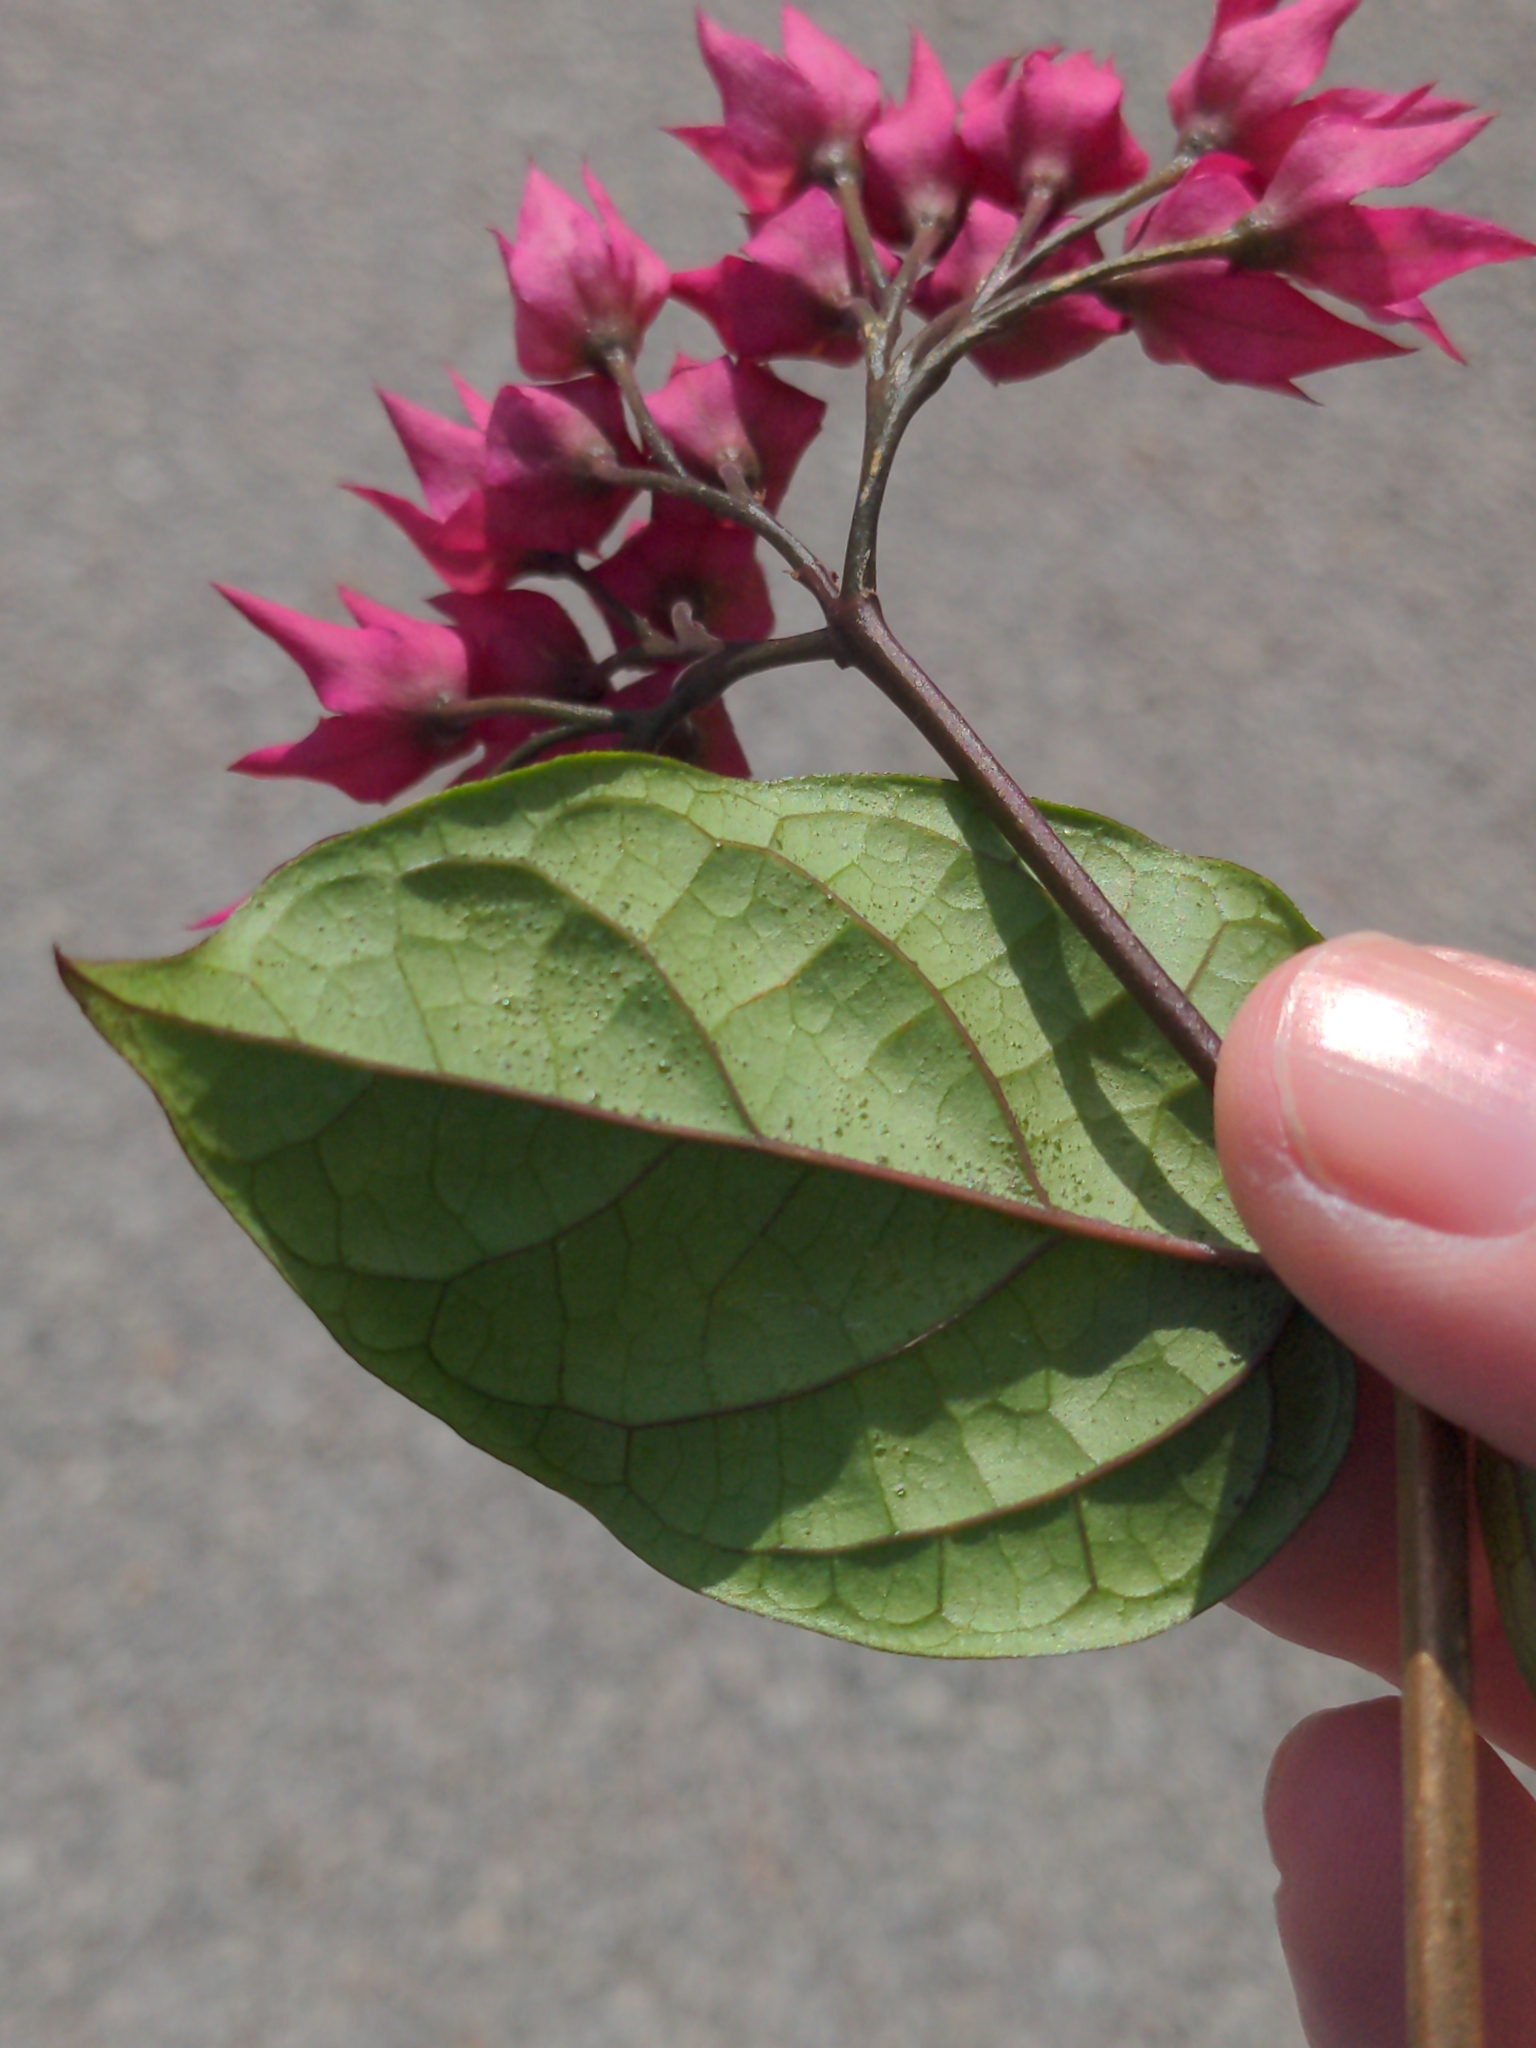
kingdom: Plantae
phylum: Tracheophyta
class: Magnoliopsida
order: Lamiales
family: Lamiaceae
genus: Clerodendrum
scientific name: Clerodendrum speciosum
